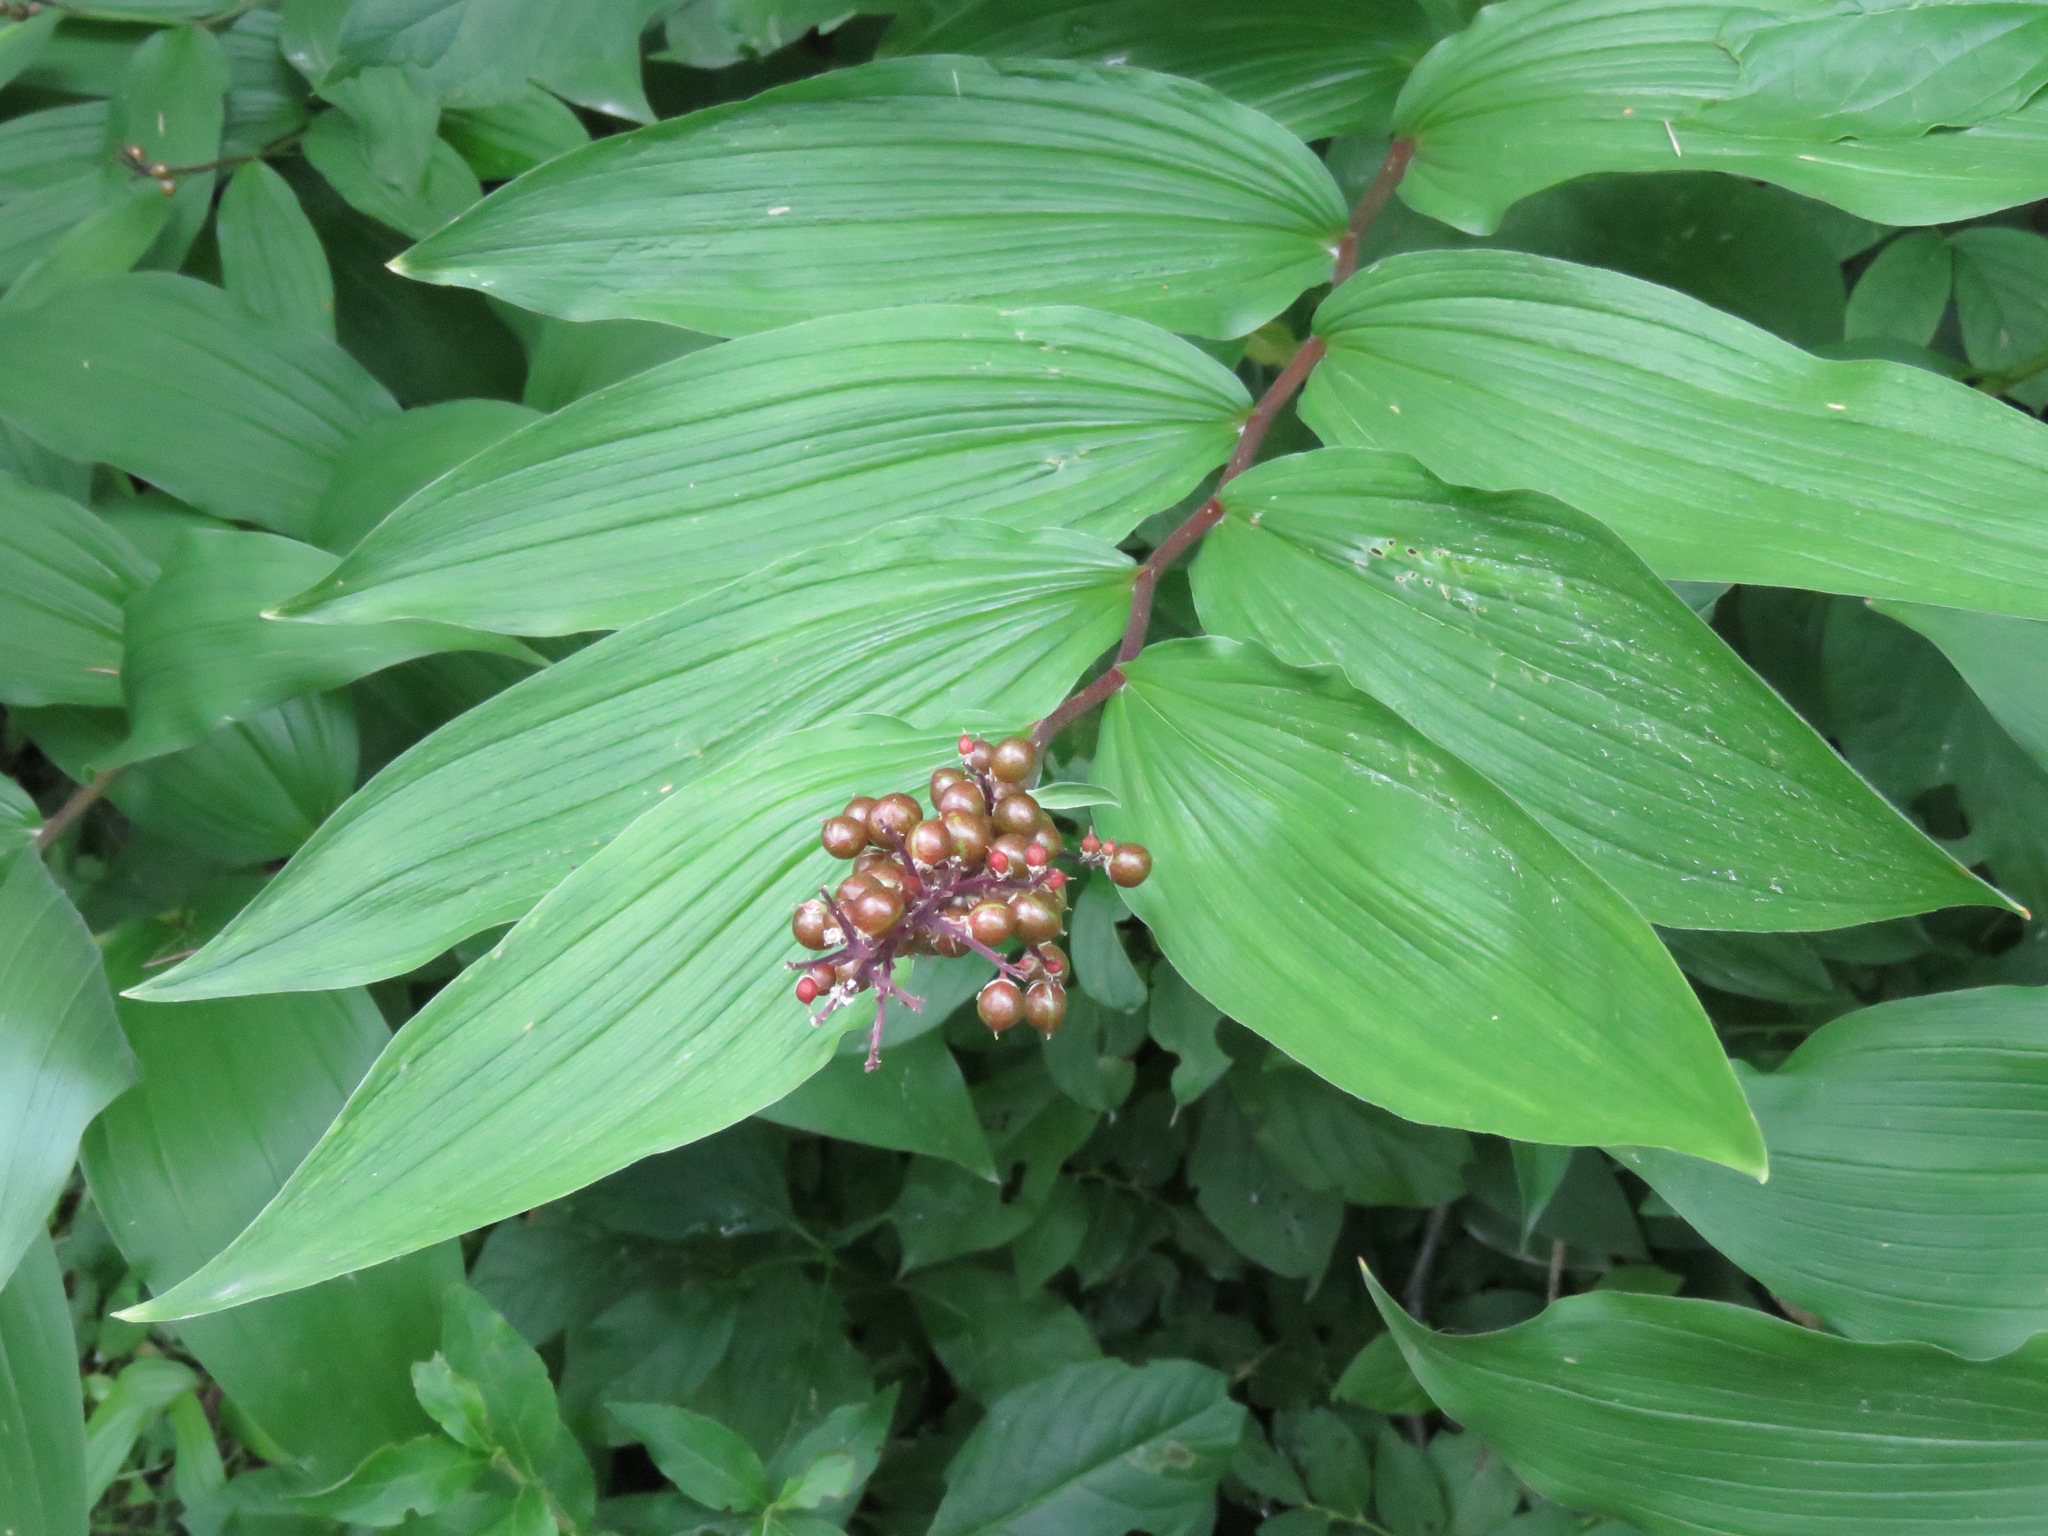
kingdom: Plantae
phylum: Tracheophyta
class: Liliopsida
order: Asparagales
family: Asparagaceae
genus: Maianthemum
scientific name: Maianthemum racemosum
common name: False spikenard
